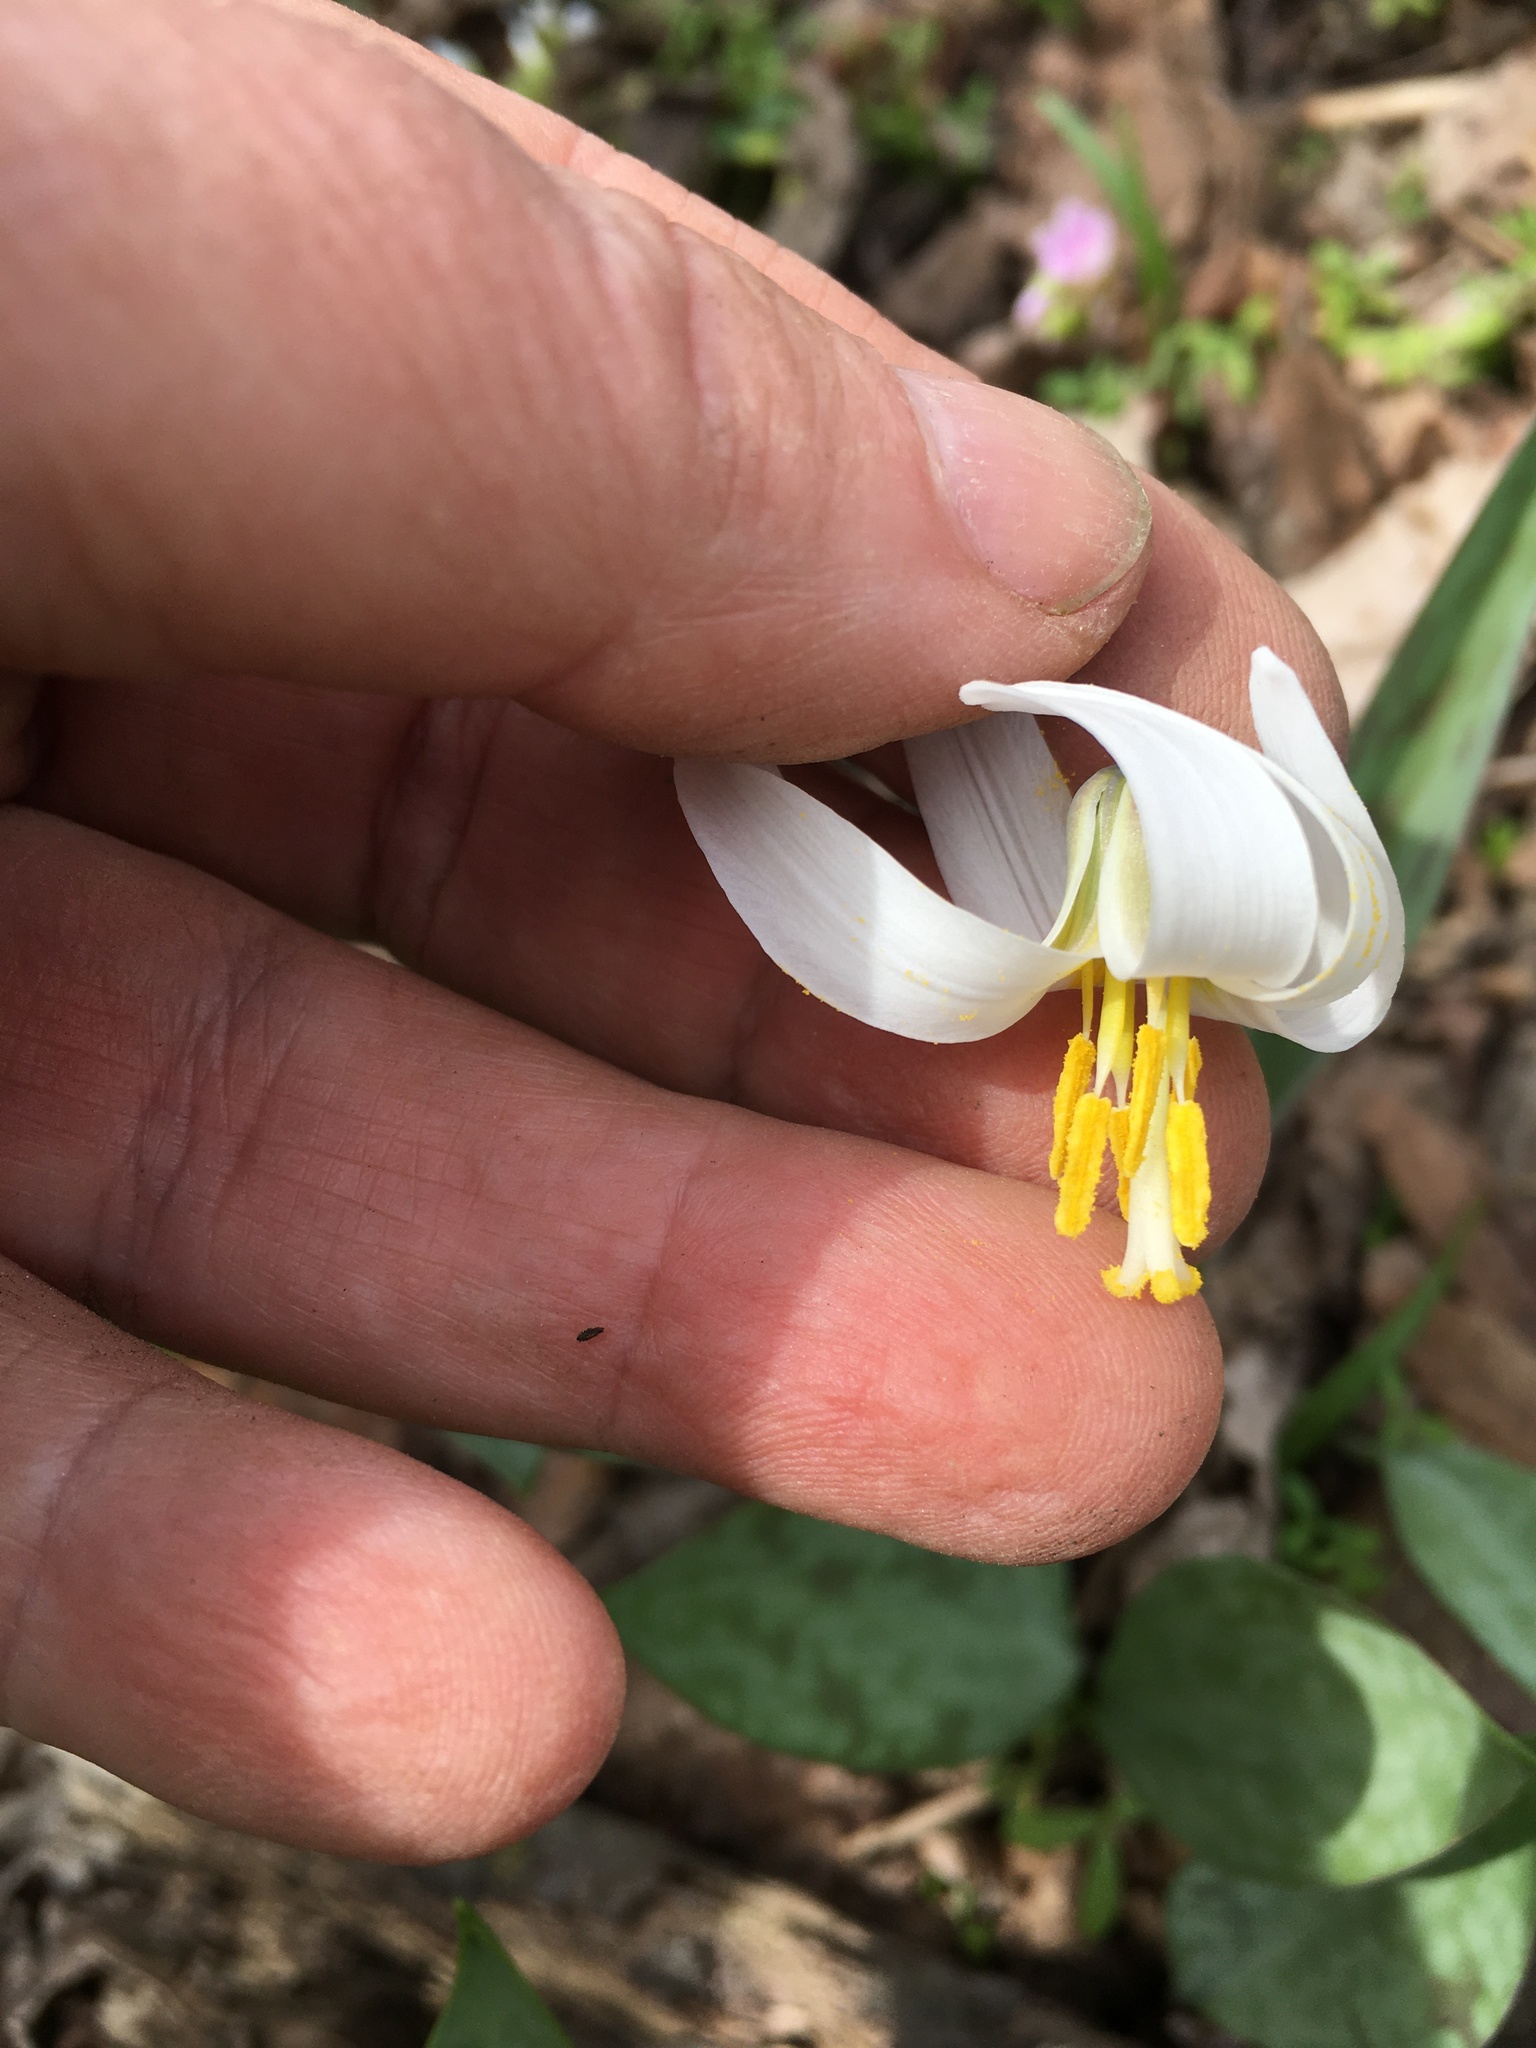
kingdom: Plantae
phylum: Tracheophyta
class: Liliopsida
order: Liliales
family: Liliaceae
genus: Erythronium
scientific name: Erythronium albidum
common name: White trout-lily
